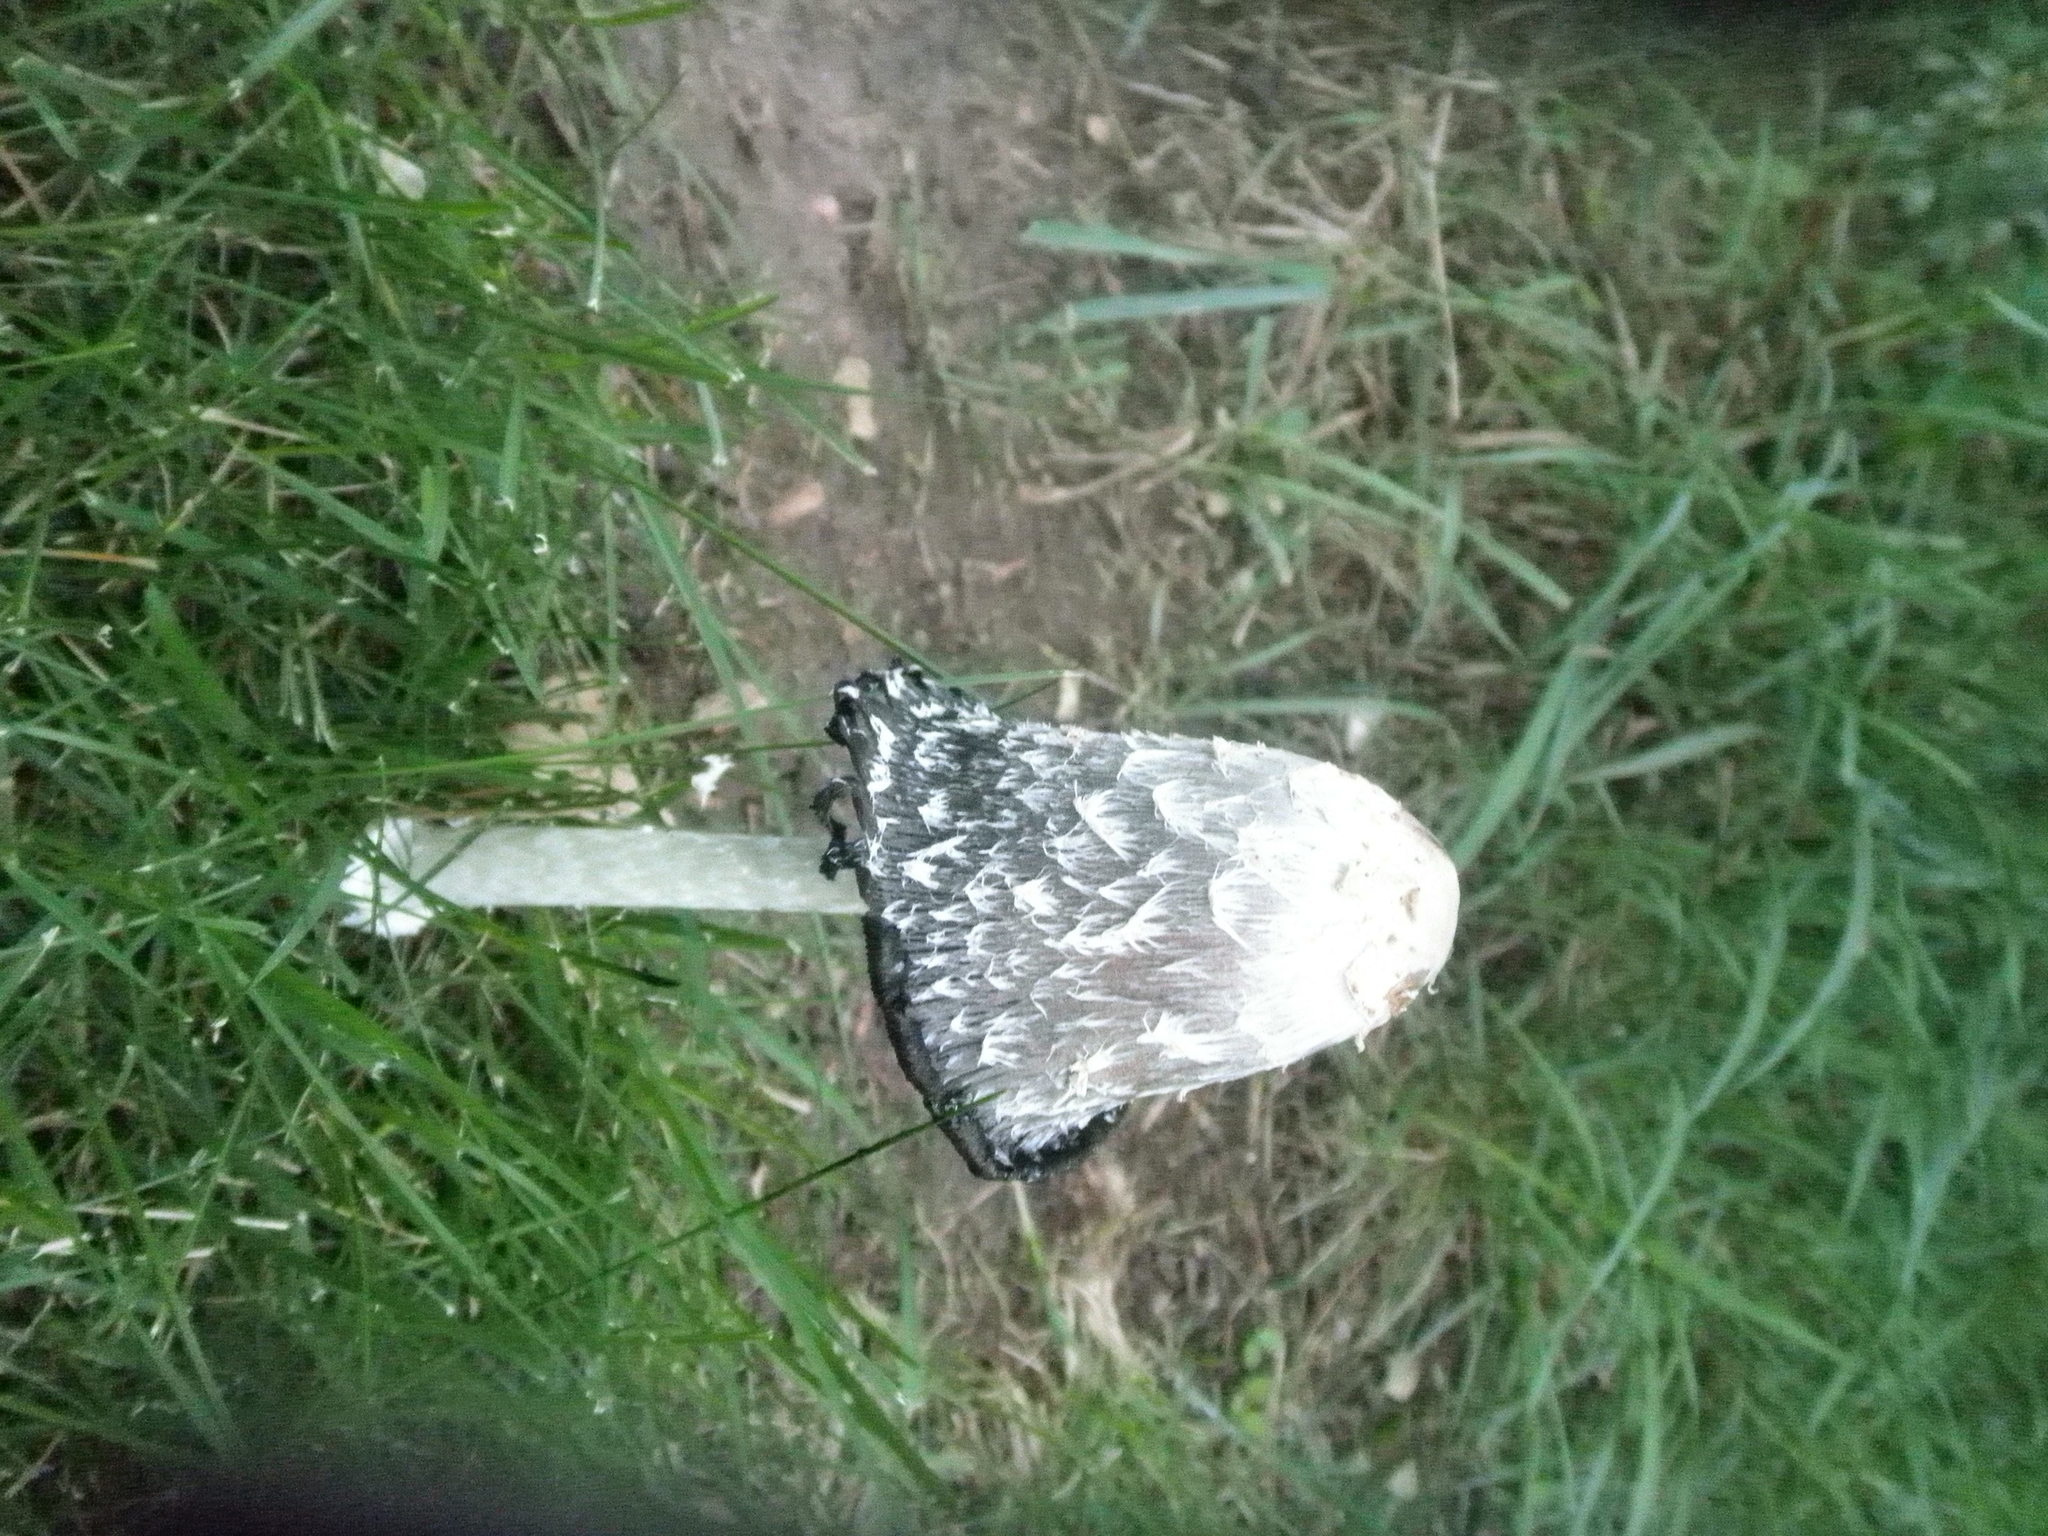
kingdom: Fungi
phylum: Basidiomycota
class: Agaricomycetes
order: Agaricales
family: Agaricaceae
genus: Coprinus
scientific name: Coprinus comatus
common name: Lawyer's wig
